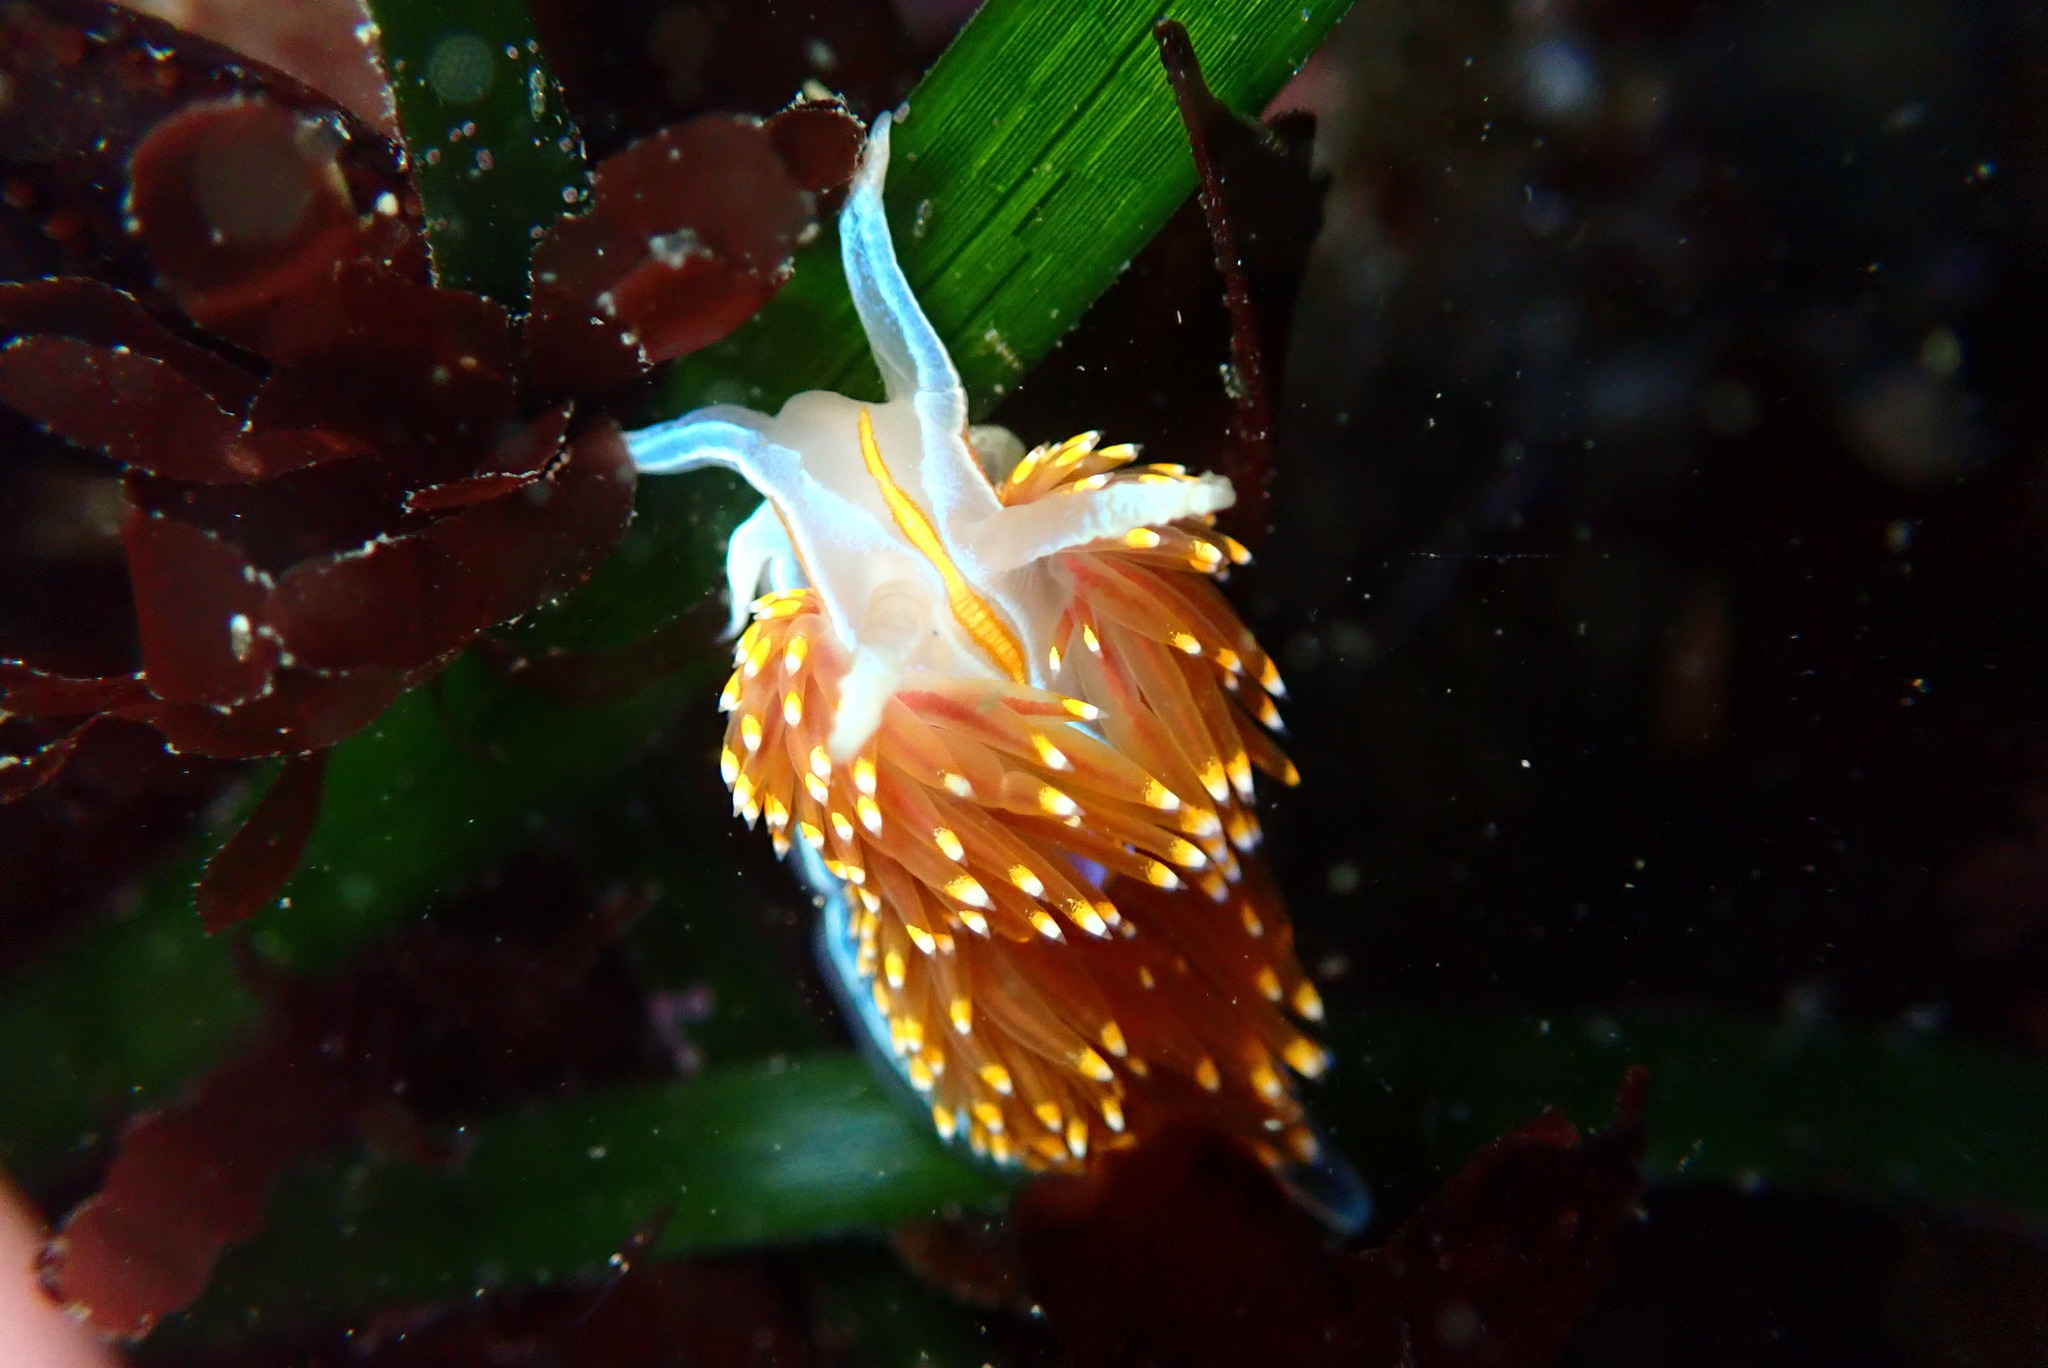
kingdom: Animalia
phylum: Mollusca
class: Gastropoda
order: Nudibranchia
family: Myrrhinidae
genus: Hermissenda
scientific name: Hermissenda opalescens
